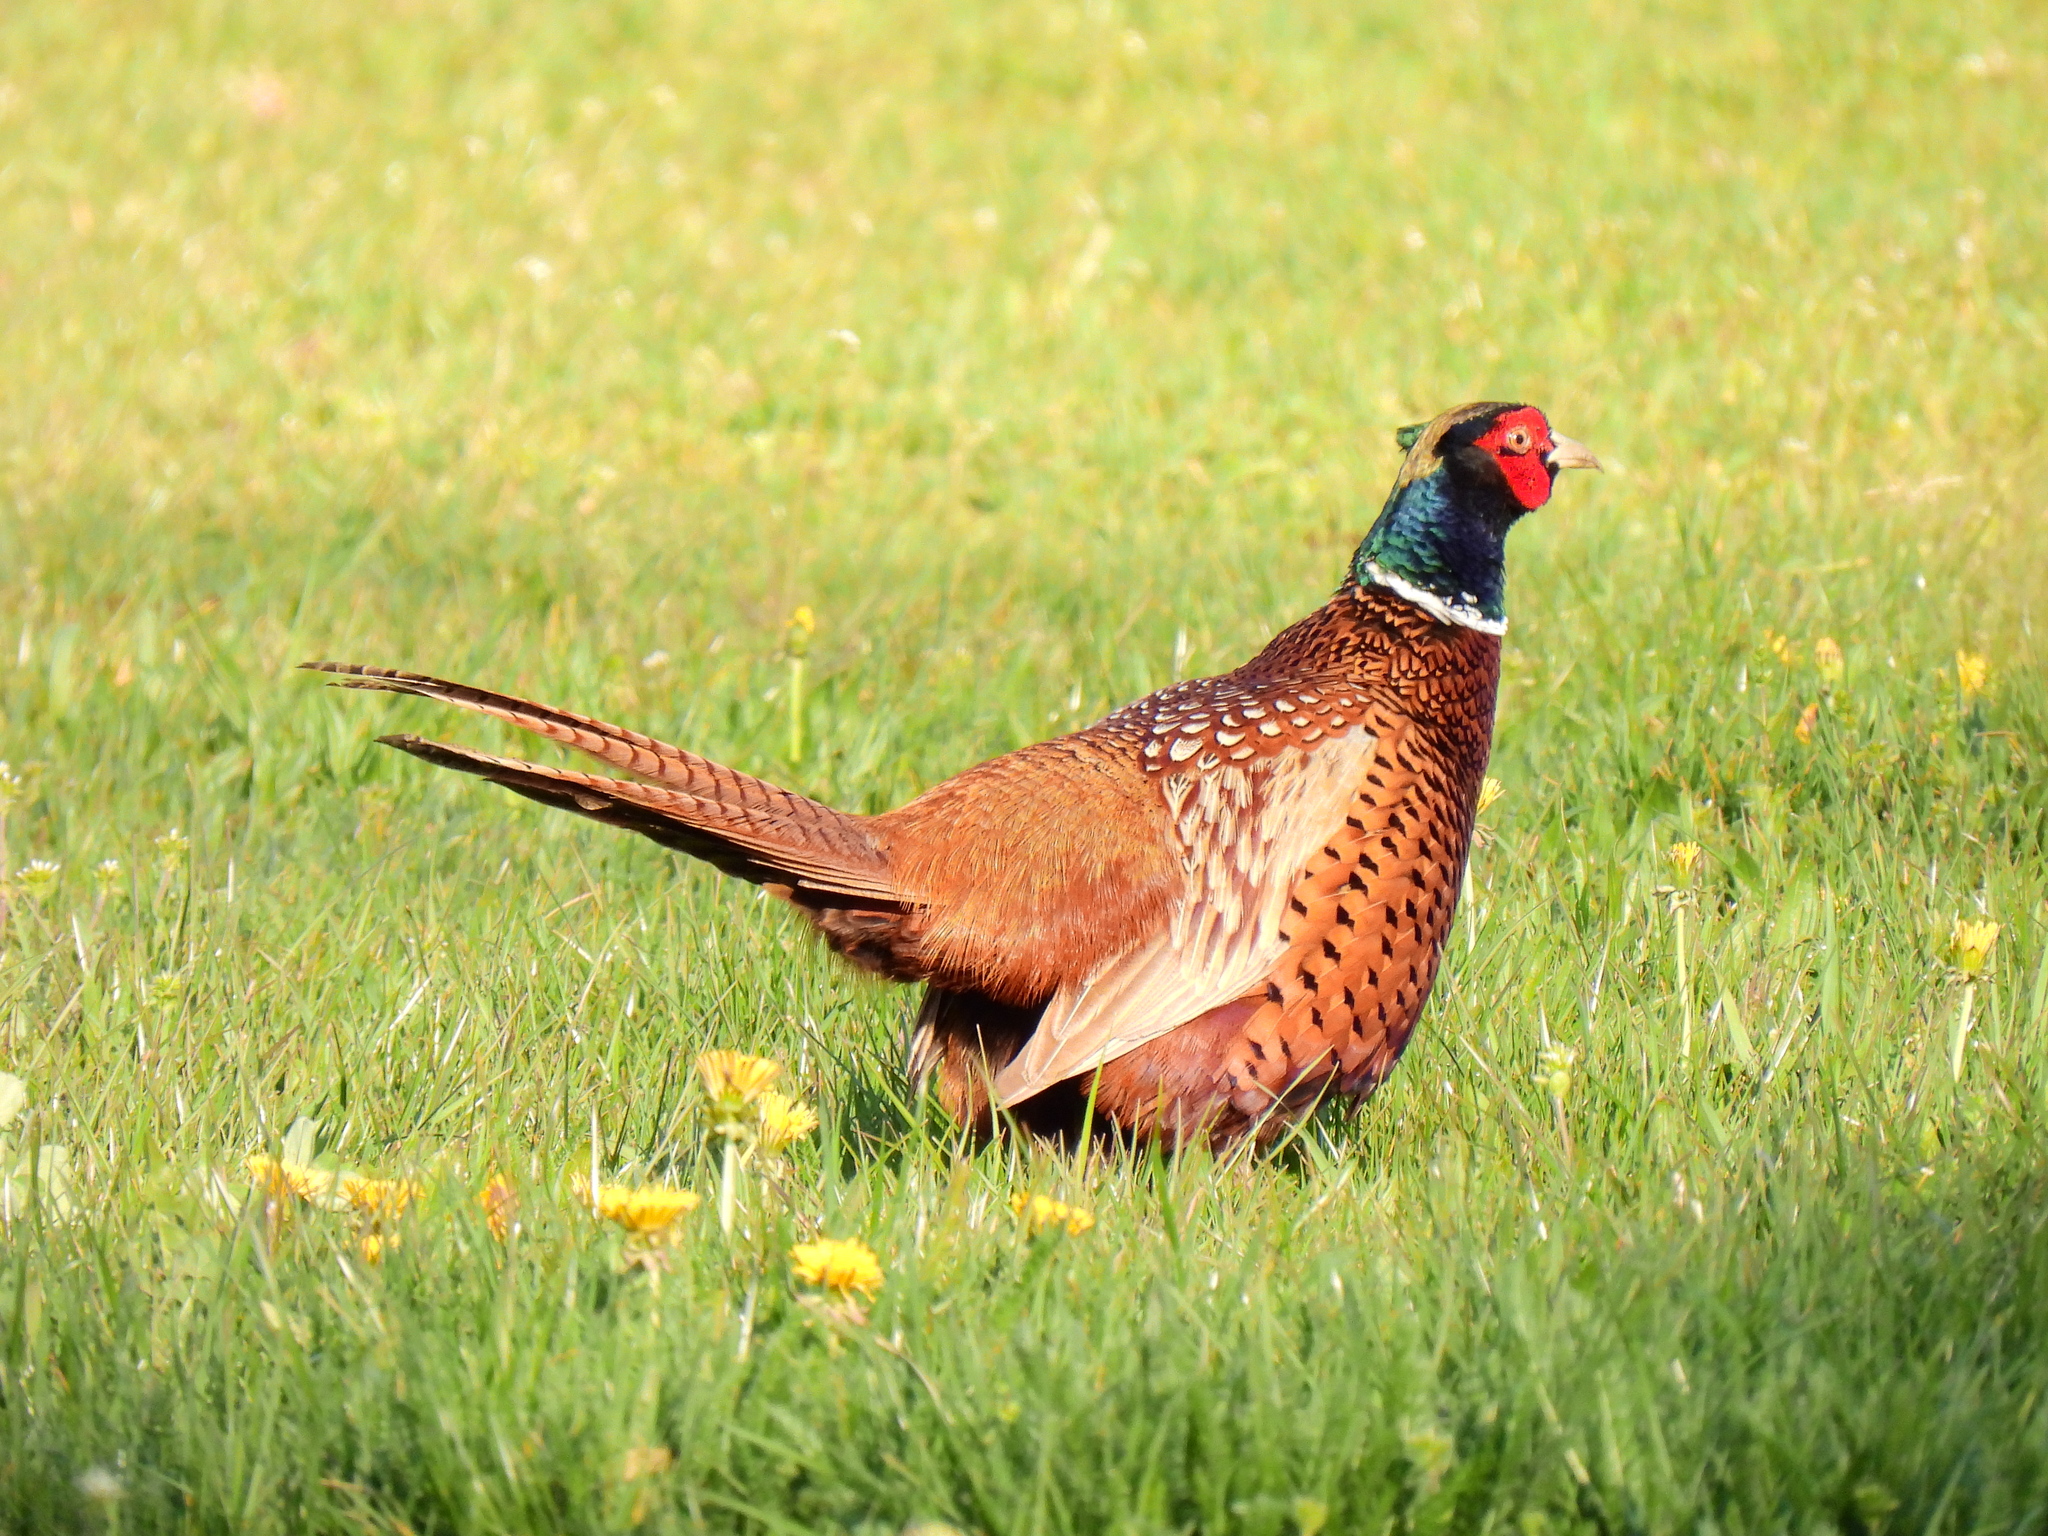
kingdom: Animalia
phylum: Chordata
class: Aves
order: Galliformes
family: Phasianidae
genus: Phasianus
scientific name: Phasianus colchicus
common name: Common pheasant
